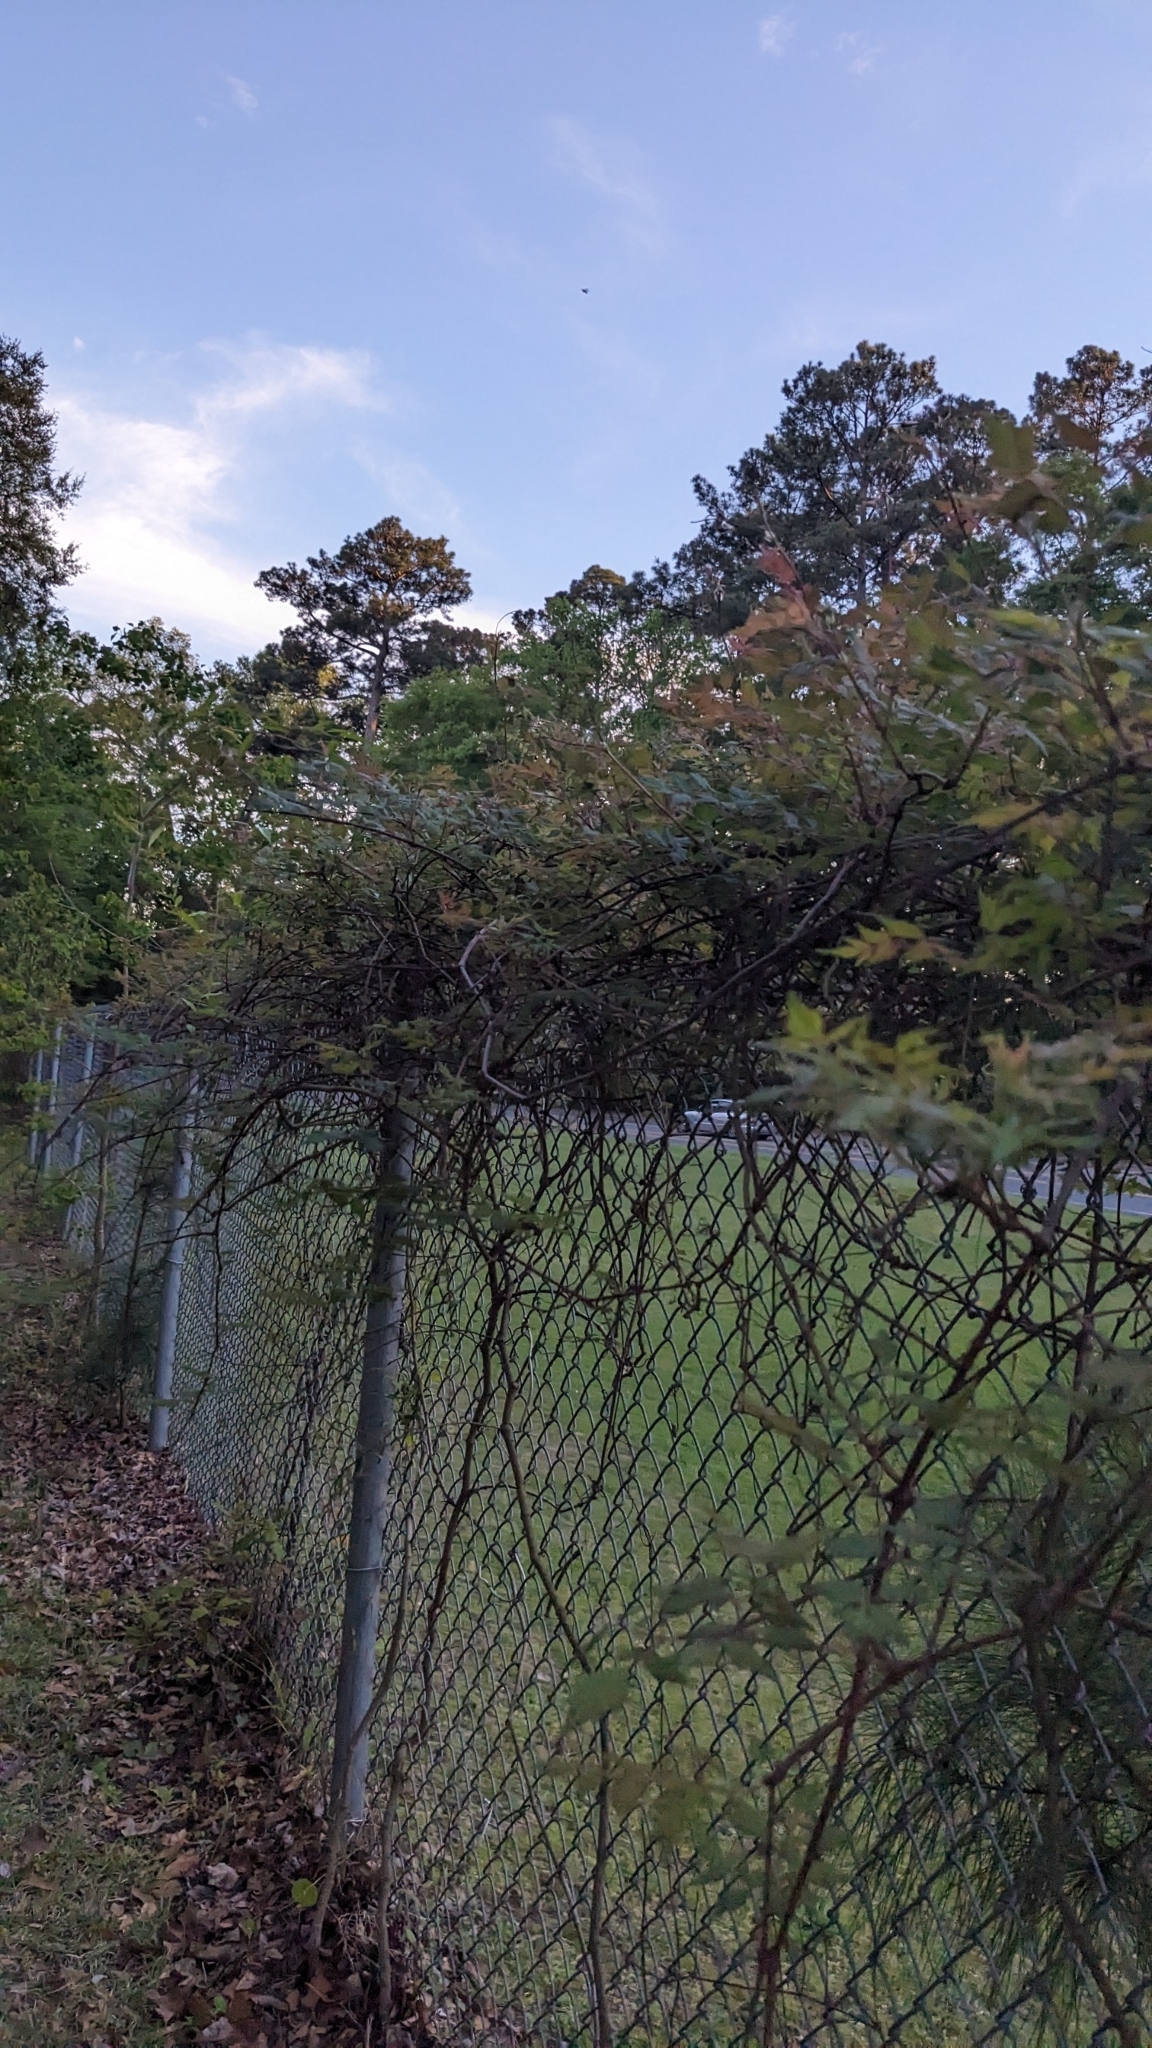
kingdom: Plantae
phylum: Tracheophyta
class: Magnoliopsida
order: Vitales
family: Vitaceae
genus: Nekemias
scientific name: Nekemias arborea
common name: Peppervine
